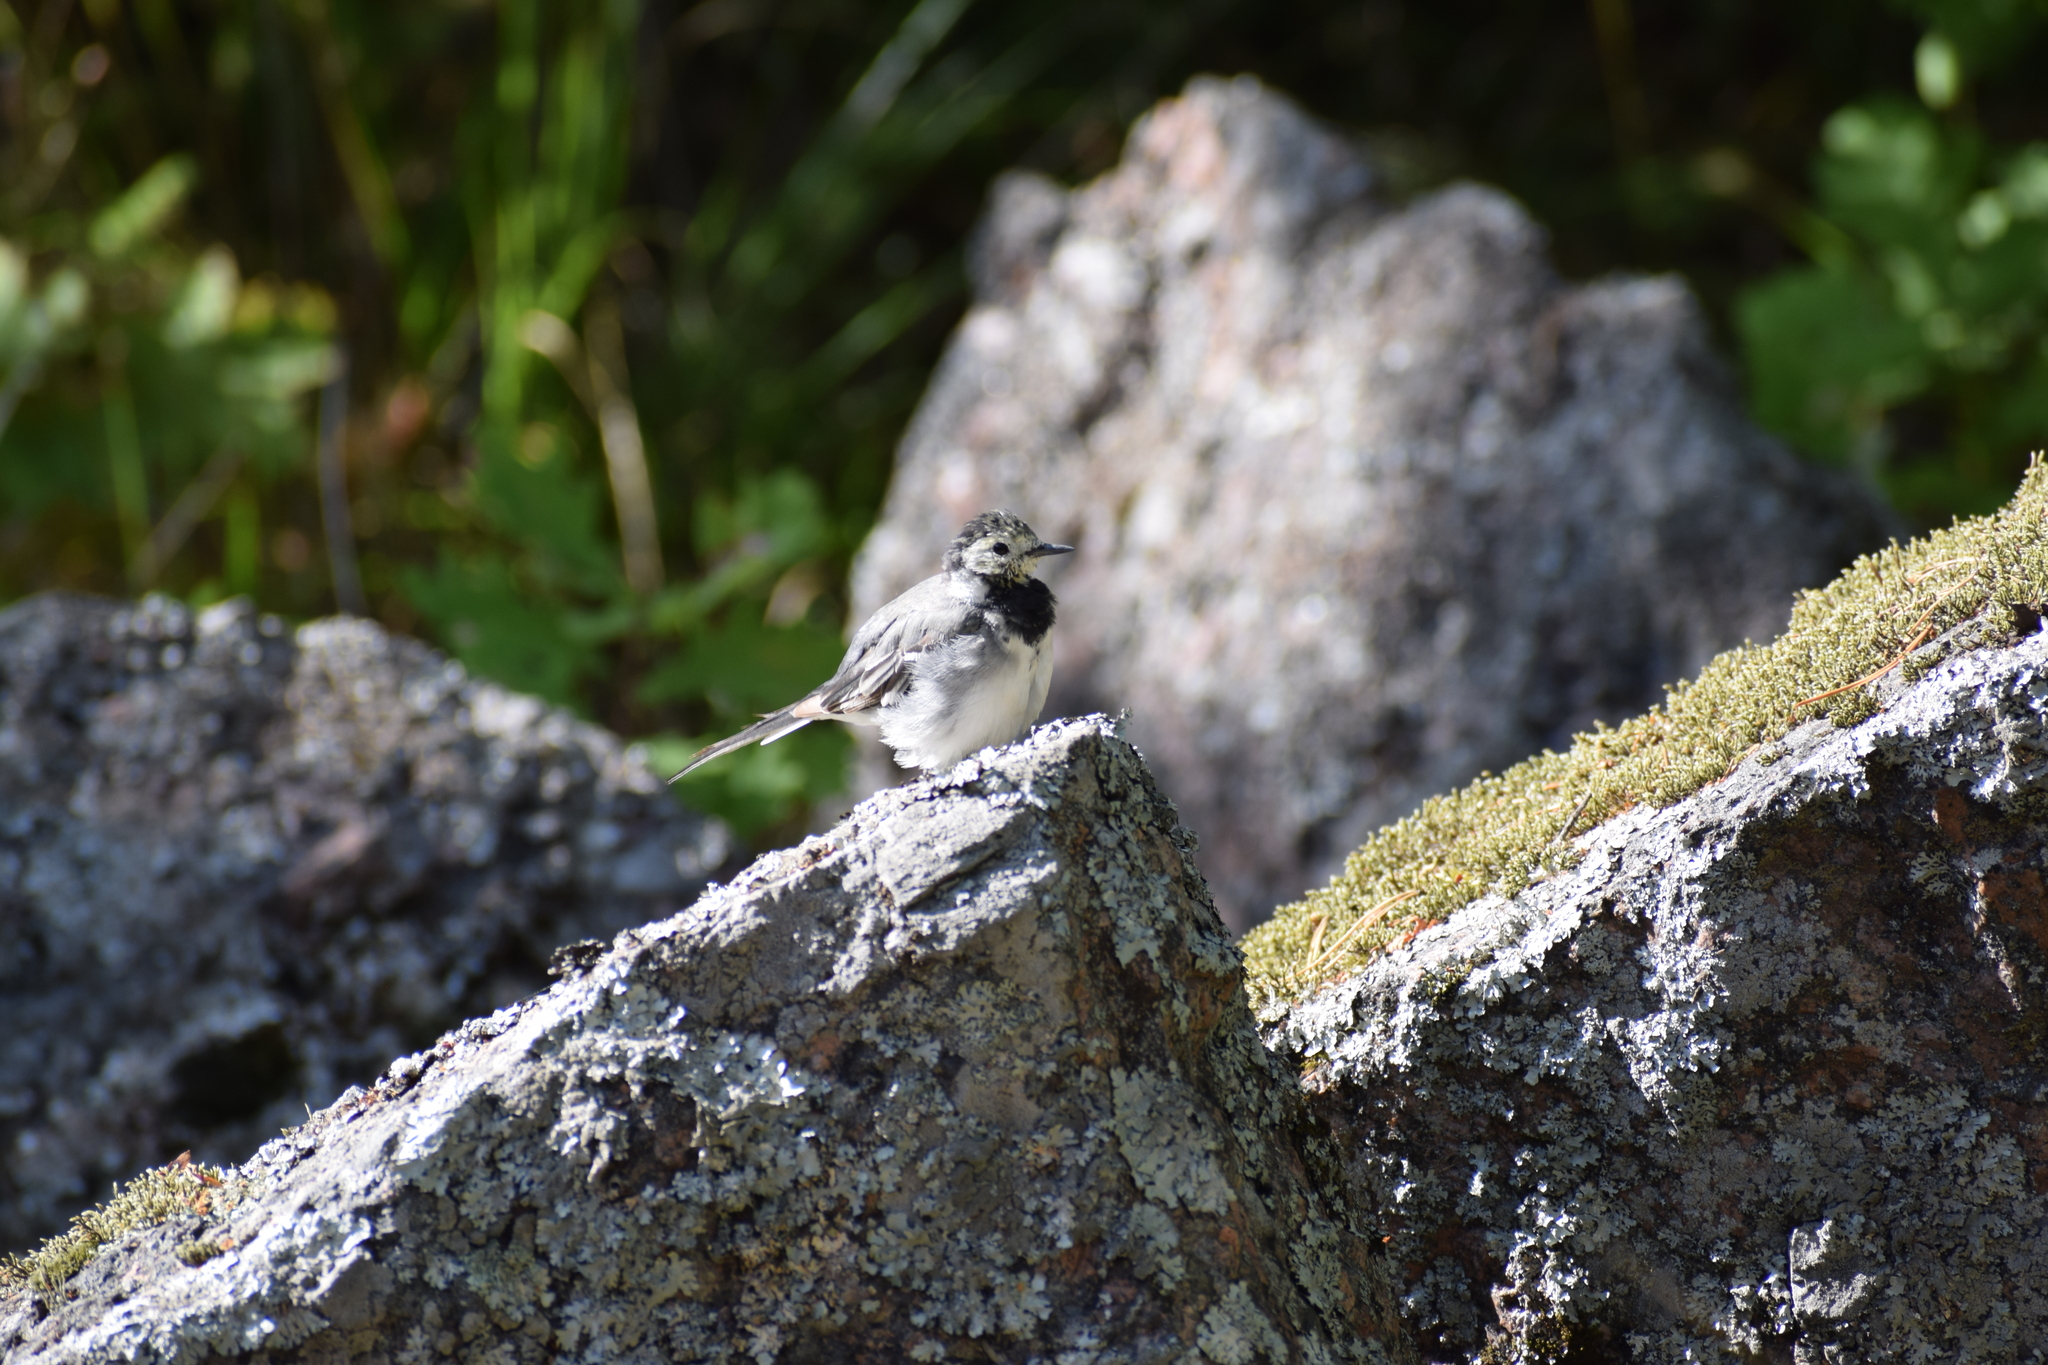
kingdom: Animalia
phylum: Chordata
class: Aves
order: Passeriformes
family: Motacillidae
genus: Motacilla
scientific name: Motacilla alba
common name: White wagtail
